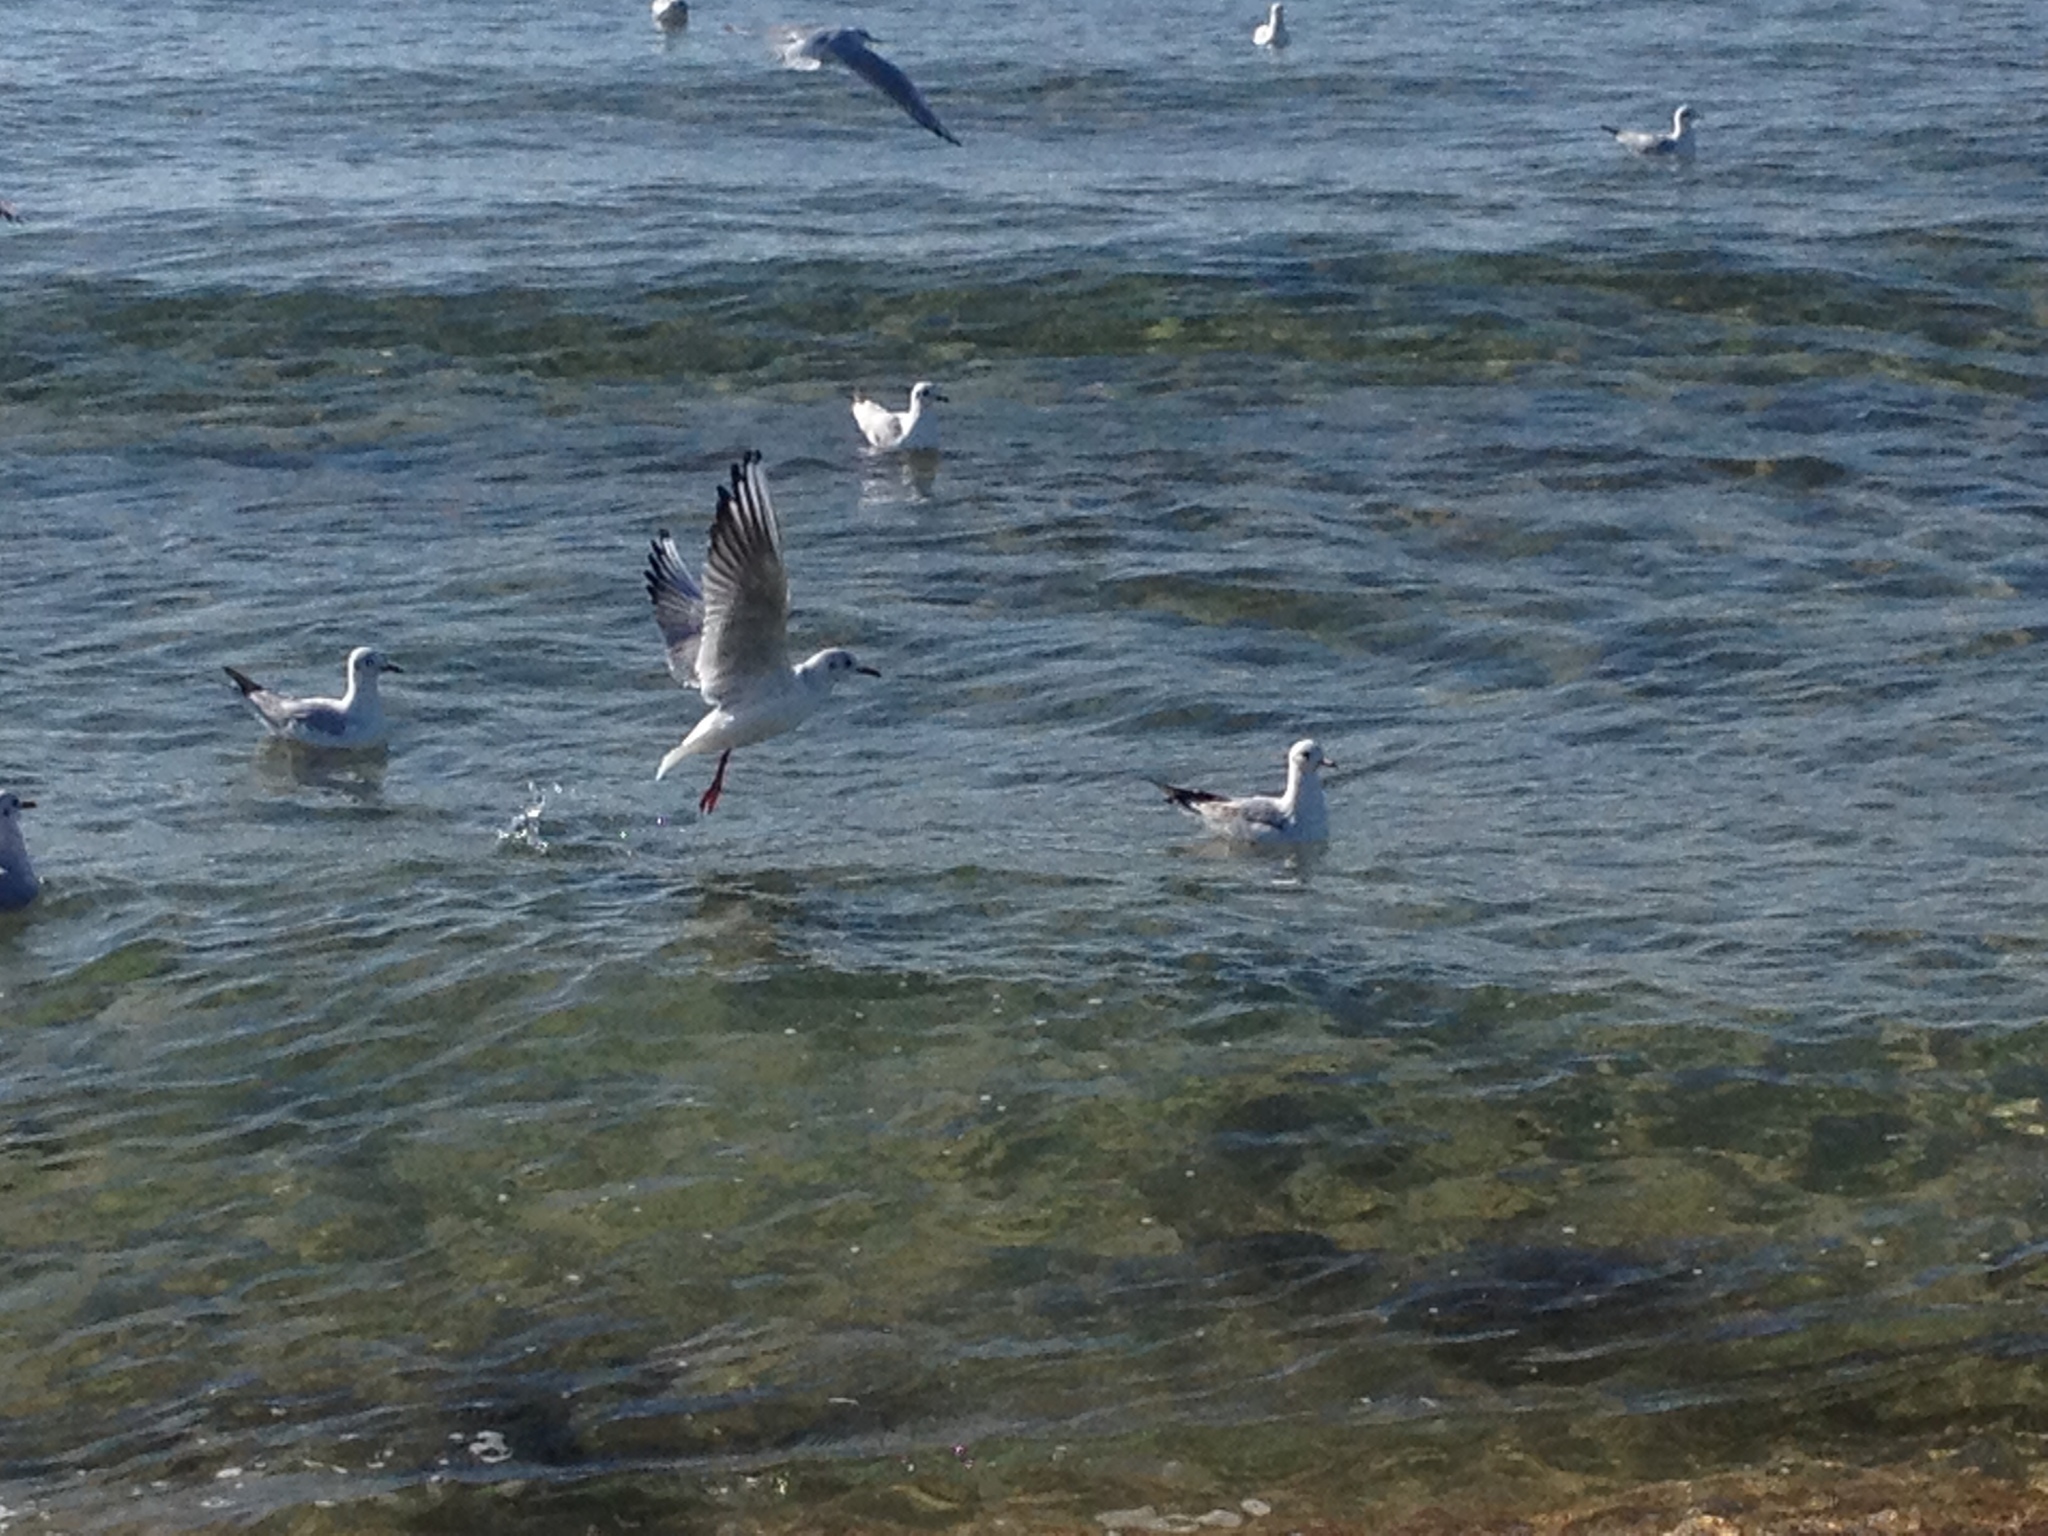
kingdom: Animalia
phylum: Chordata
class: Aves
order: Charadriiformes
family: Laridae
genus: Chroicocephalus
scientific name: Chroicocephalus ridibundus
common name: Black-headed gull
